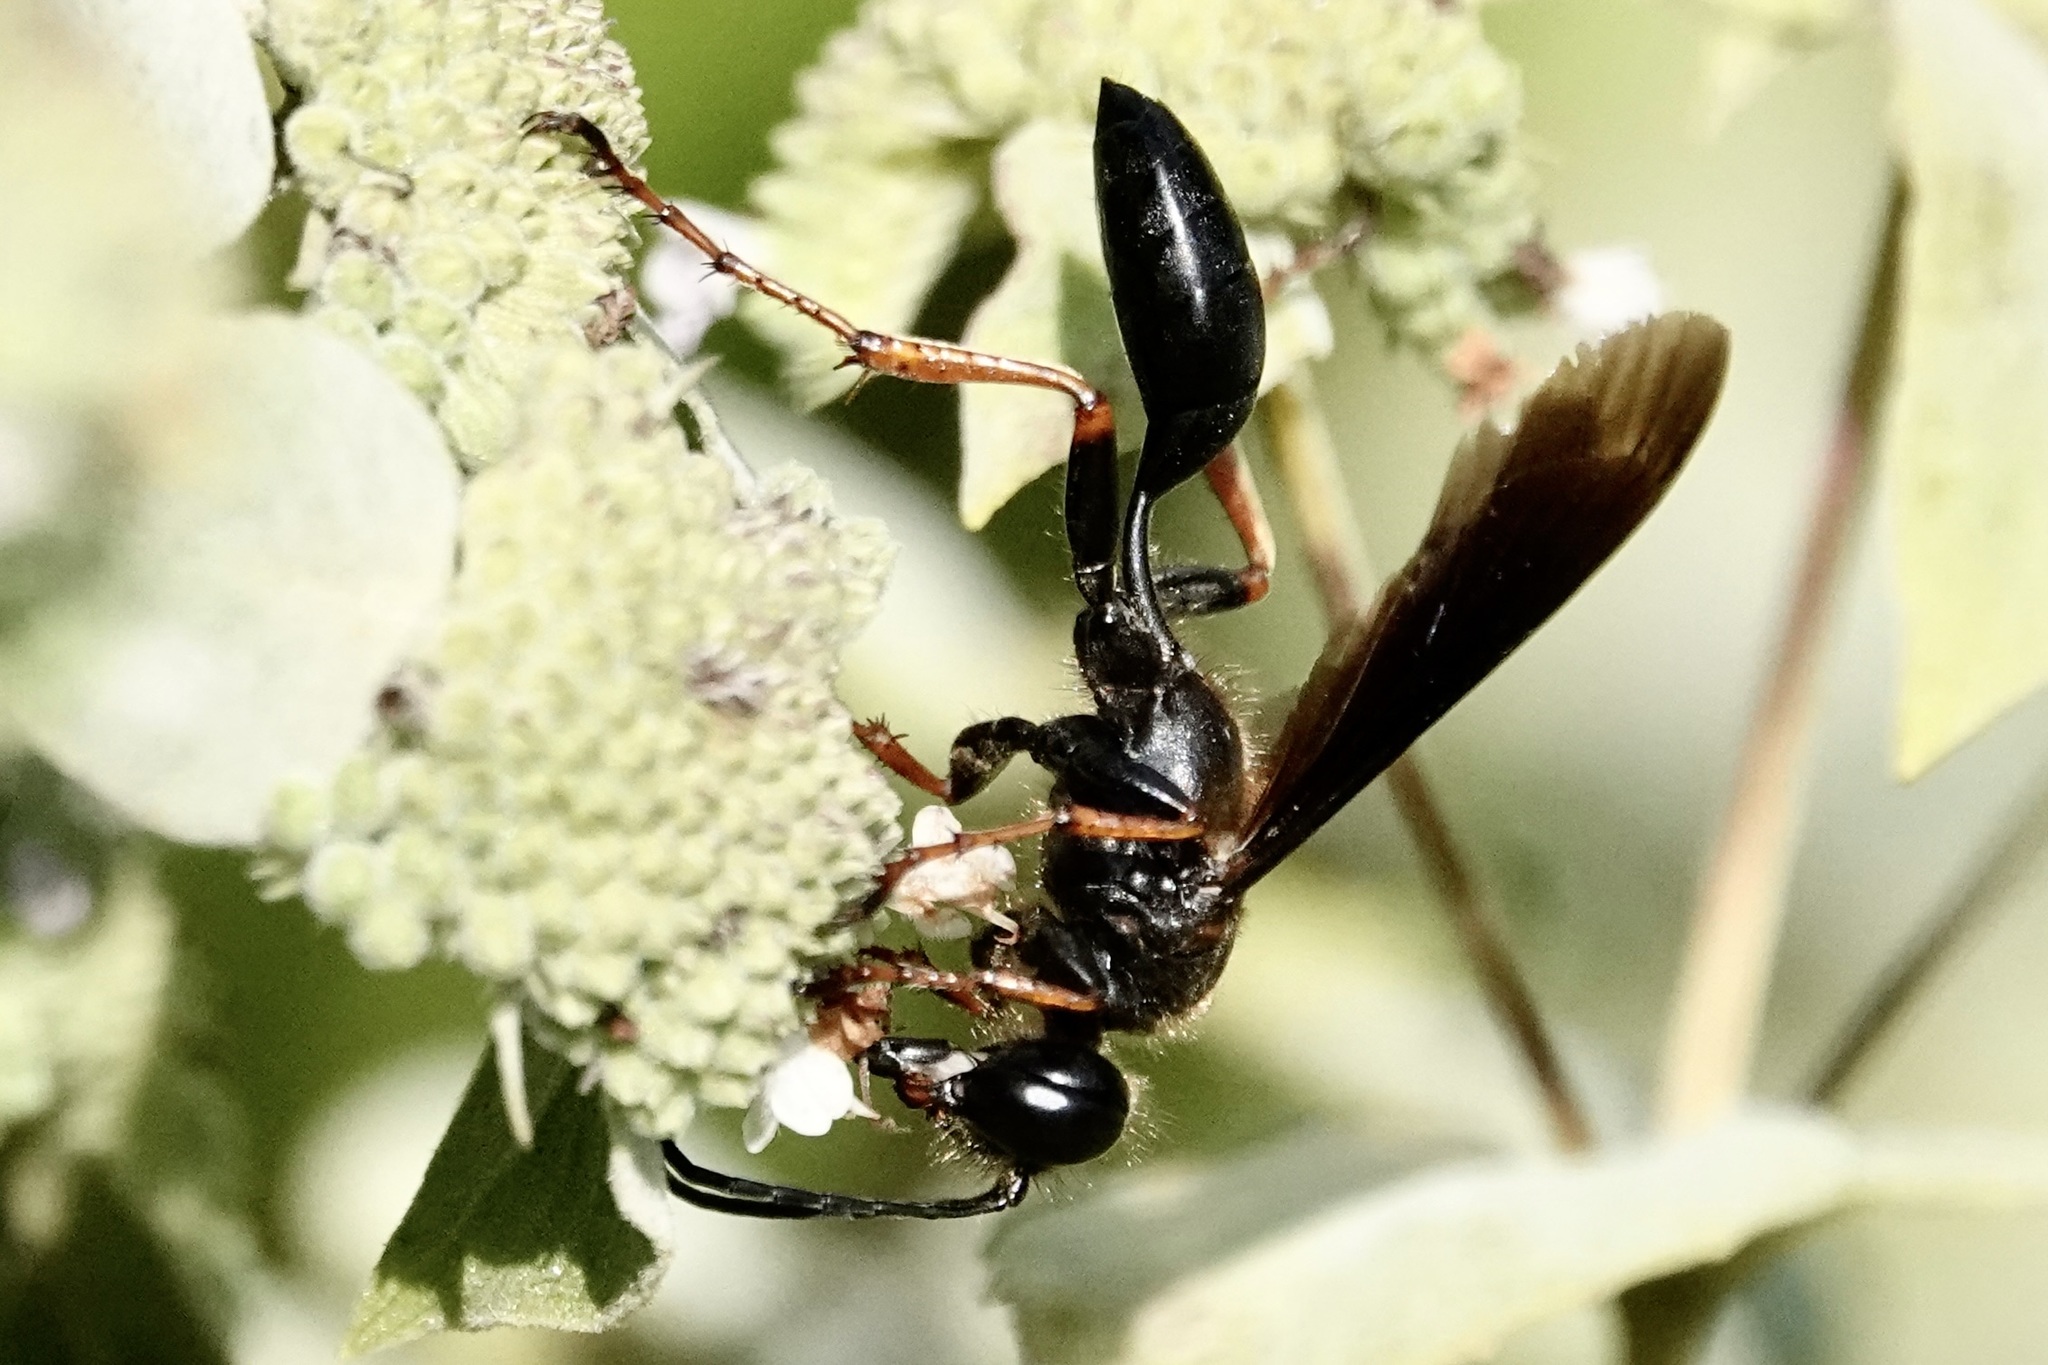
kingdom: Animalia
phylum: Arthropoda
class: Insecta
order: Hymenoptera
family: Sphecidae
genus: Isodontia
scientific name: Isodontia auripes
